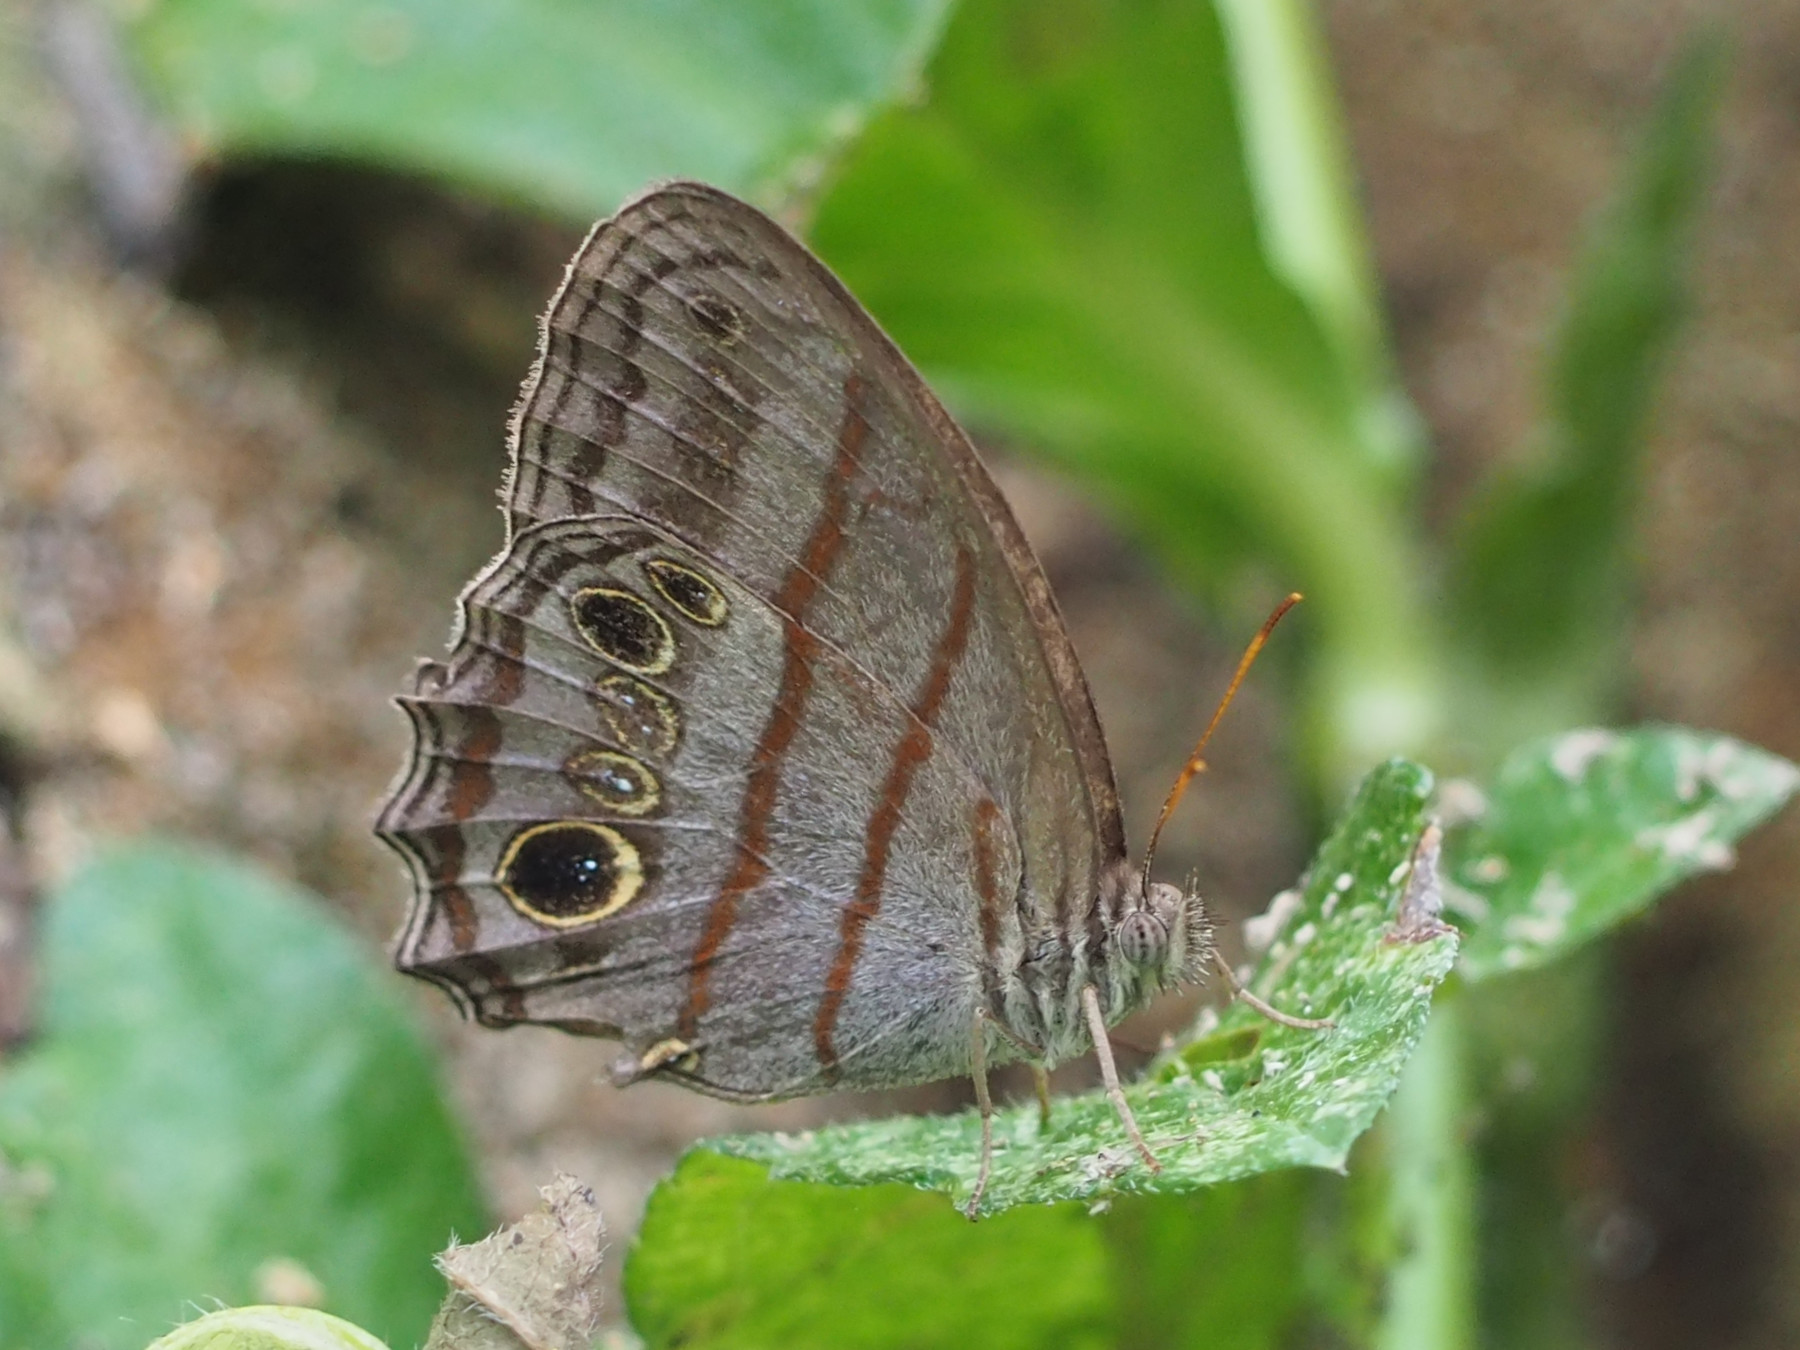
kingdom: Animalia
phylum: Arthropoda
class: Insecta
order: Lepidoptera
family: Nymphalidae
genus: Magneuptychia
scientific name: Magneuptychia libye
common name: Blue-gray satyr
